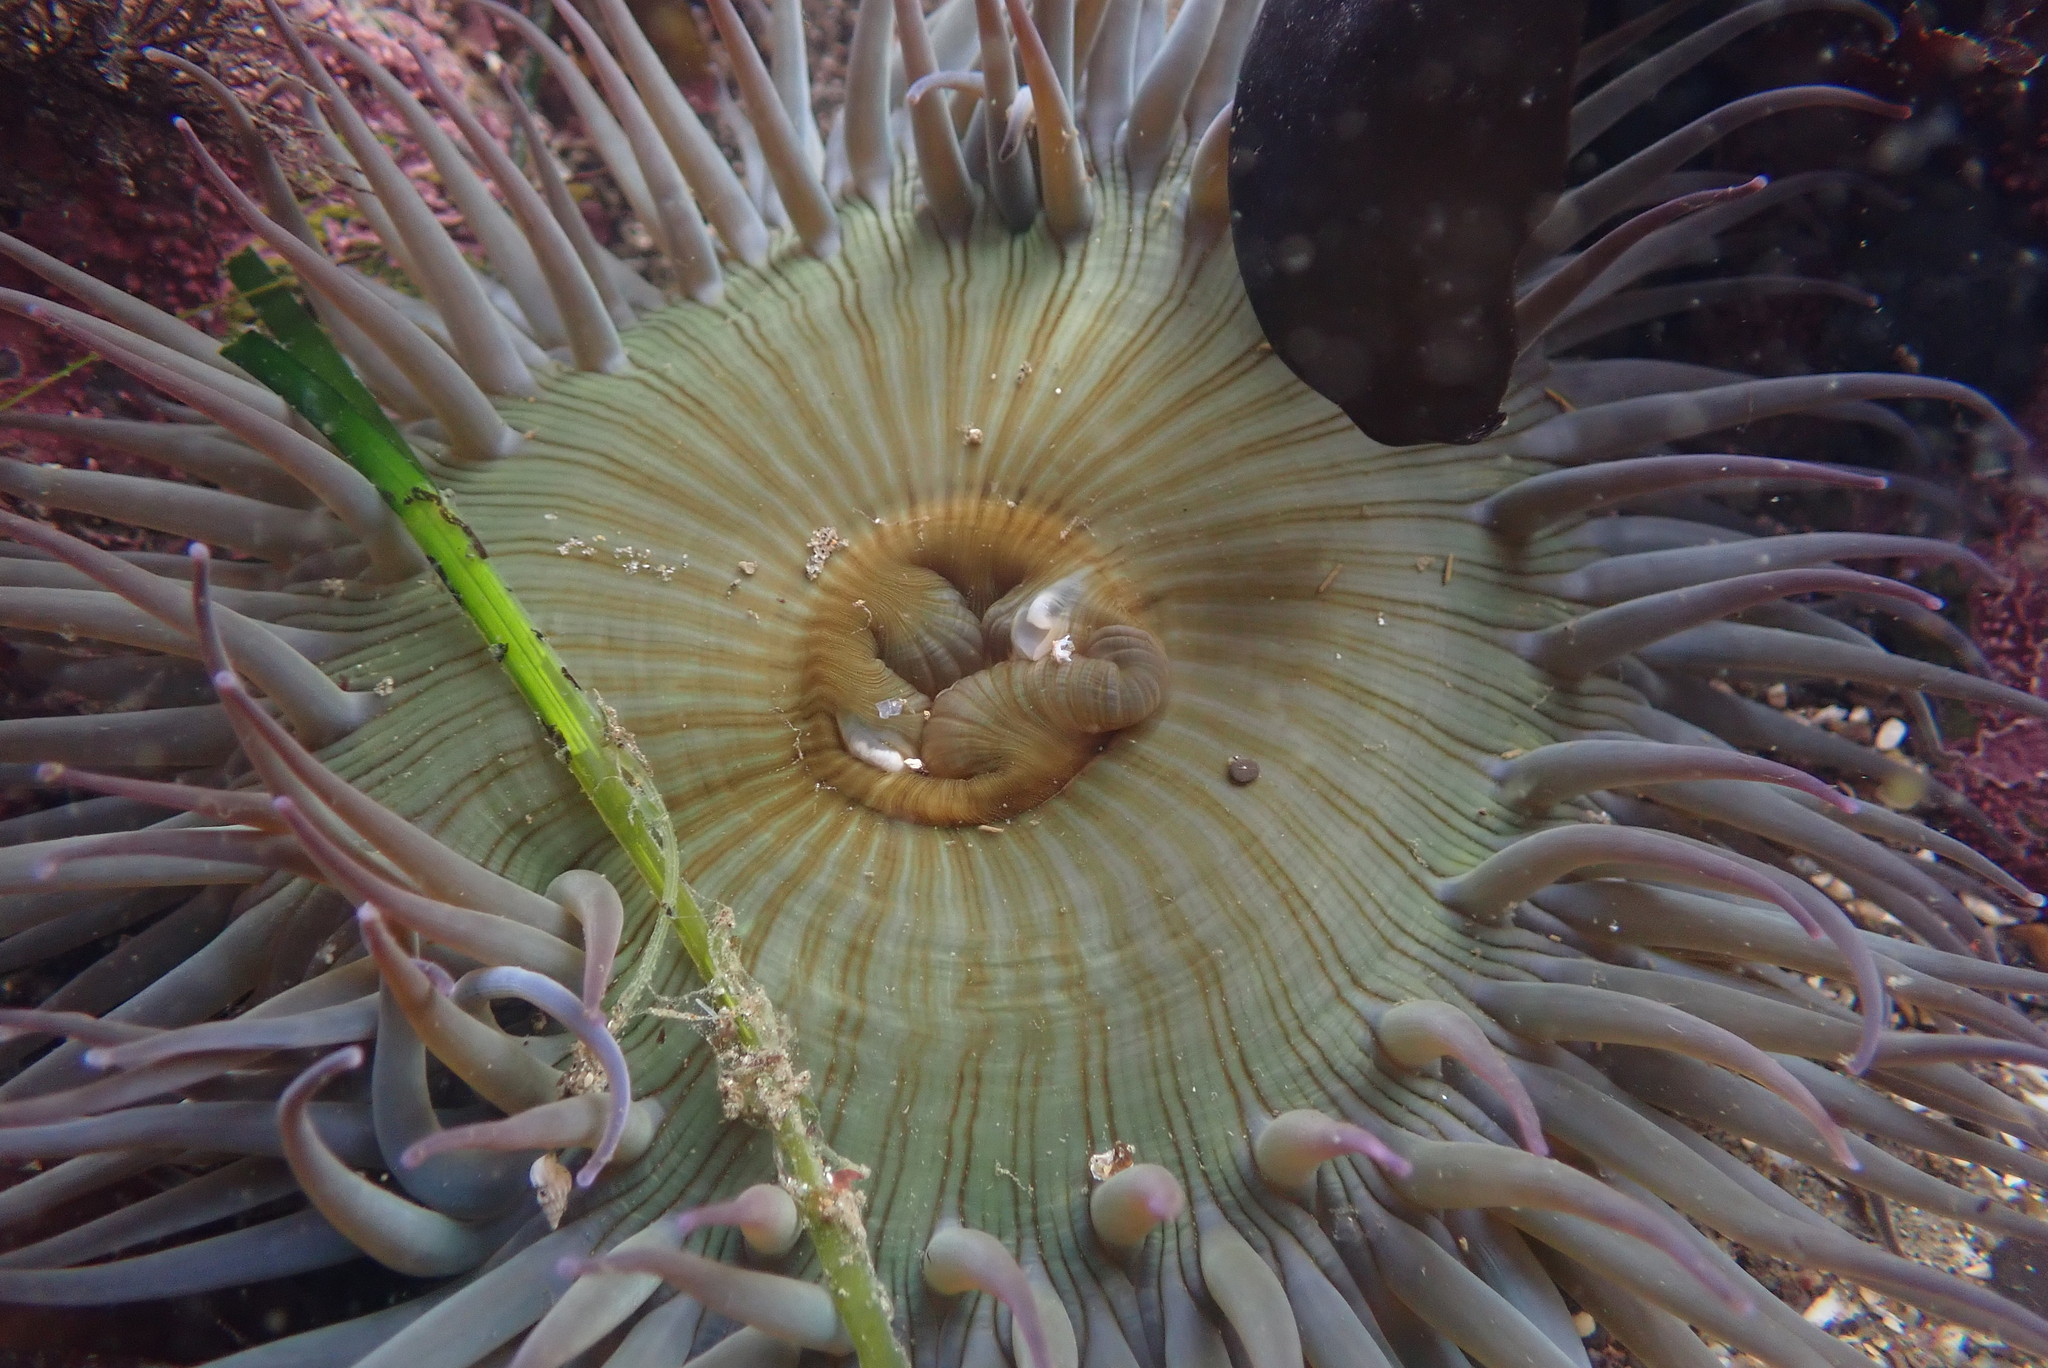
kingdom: Animalia
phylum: Cnidaria
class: Anthozoa
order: Actiniaria
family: Actiniidae
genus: Anthopleura
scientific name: Anthopleura sola
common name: Sun anemone
